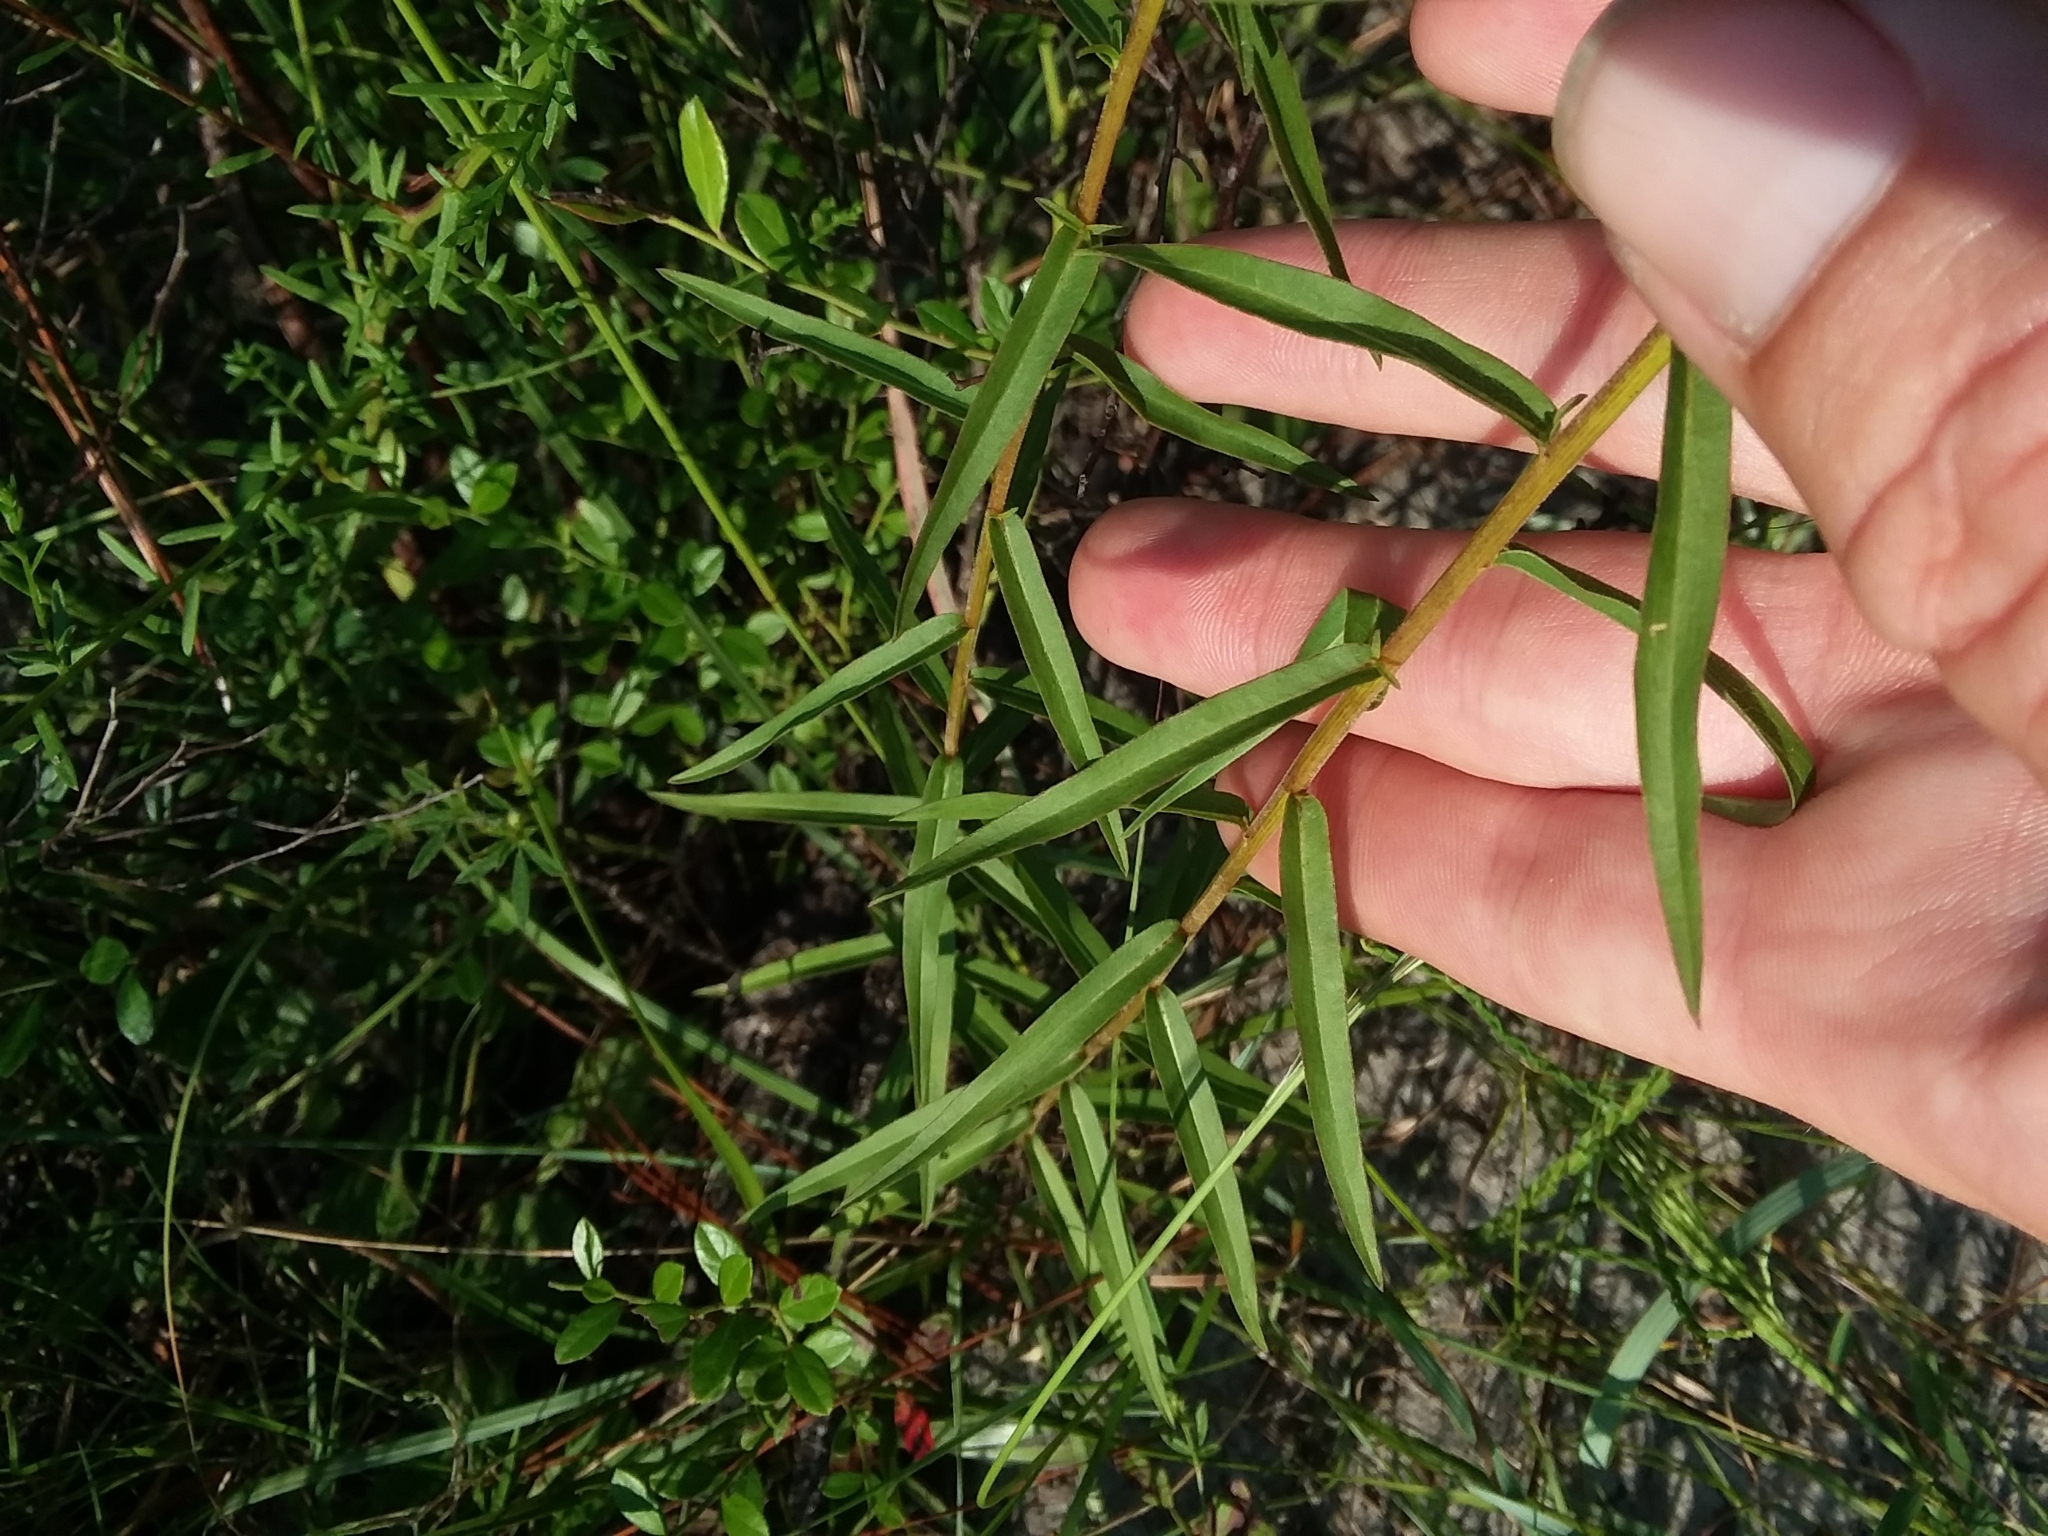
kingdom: Plantae
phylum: Tracheophyta
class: Magnoliopsida
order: Asterales
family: Asteraceae
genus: Solidago
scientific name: Solidago odora
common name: Anise-scented goldenrod
